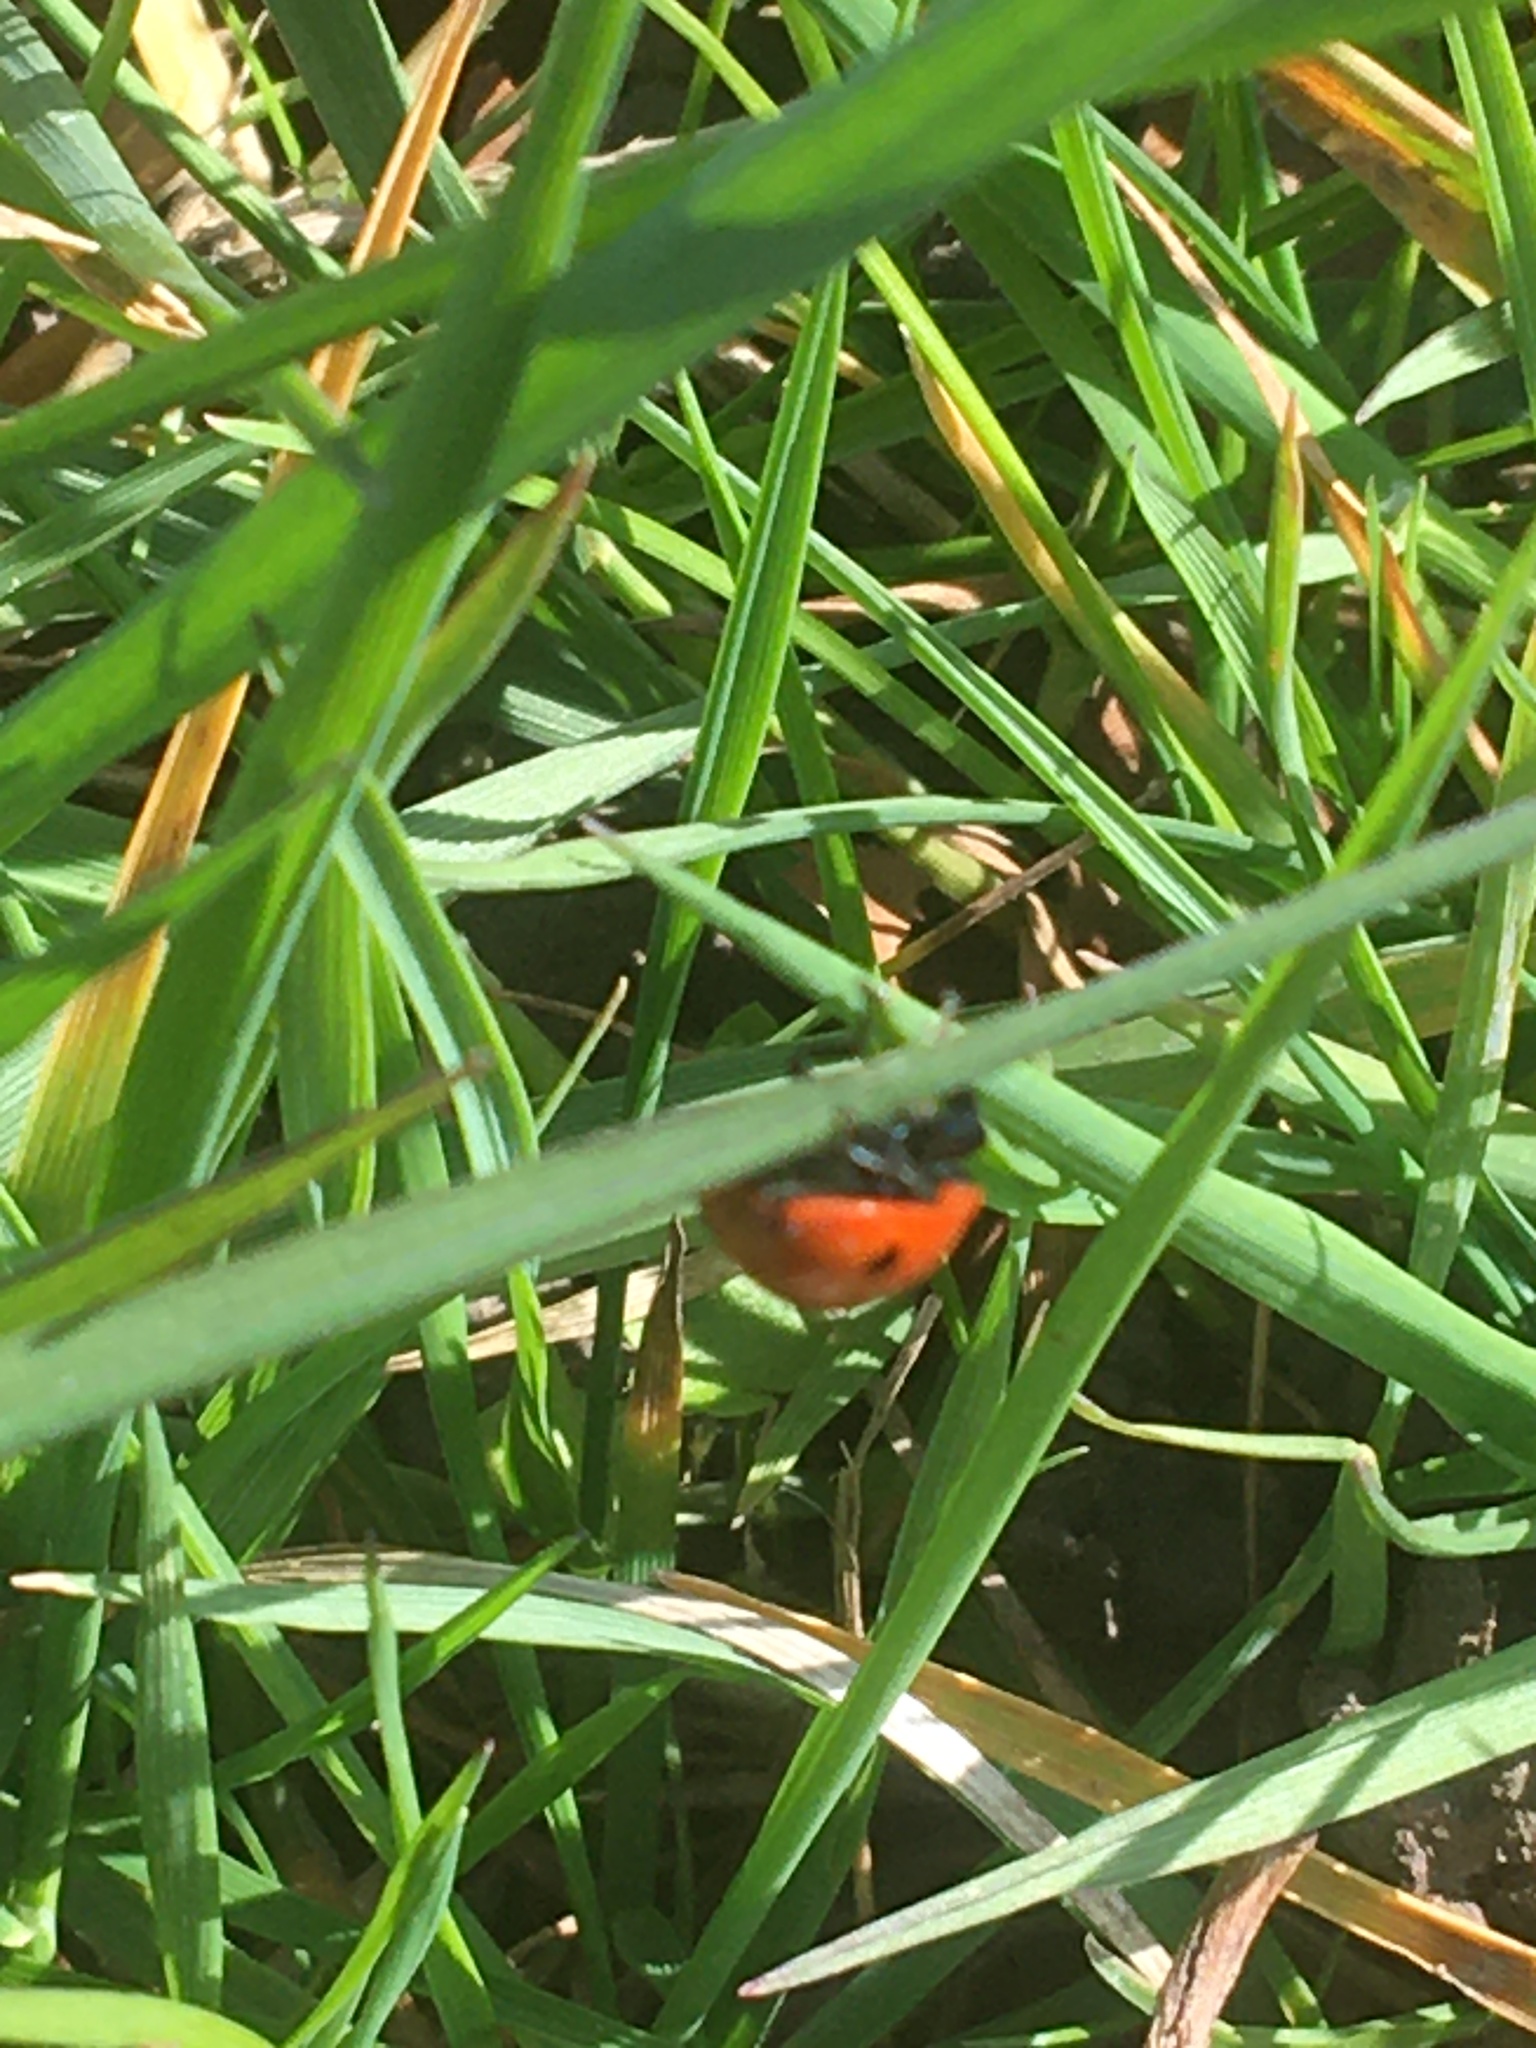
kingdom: Animalia
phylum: Arthropoda
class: Insecta
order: Coleoptera
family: Coccinellidae
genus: Coccinella
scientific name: Coccinella septempunctata
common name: Sevenspotted lady beetle
